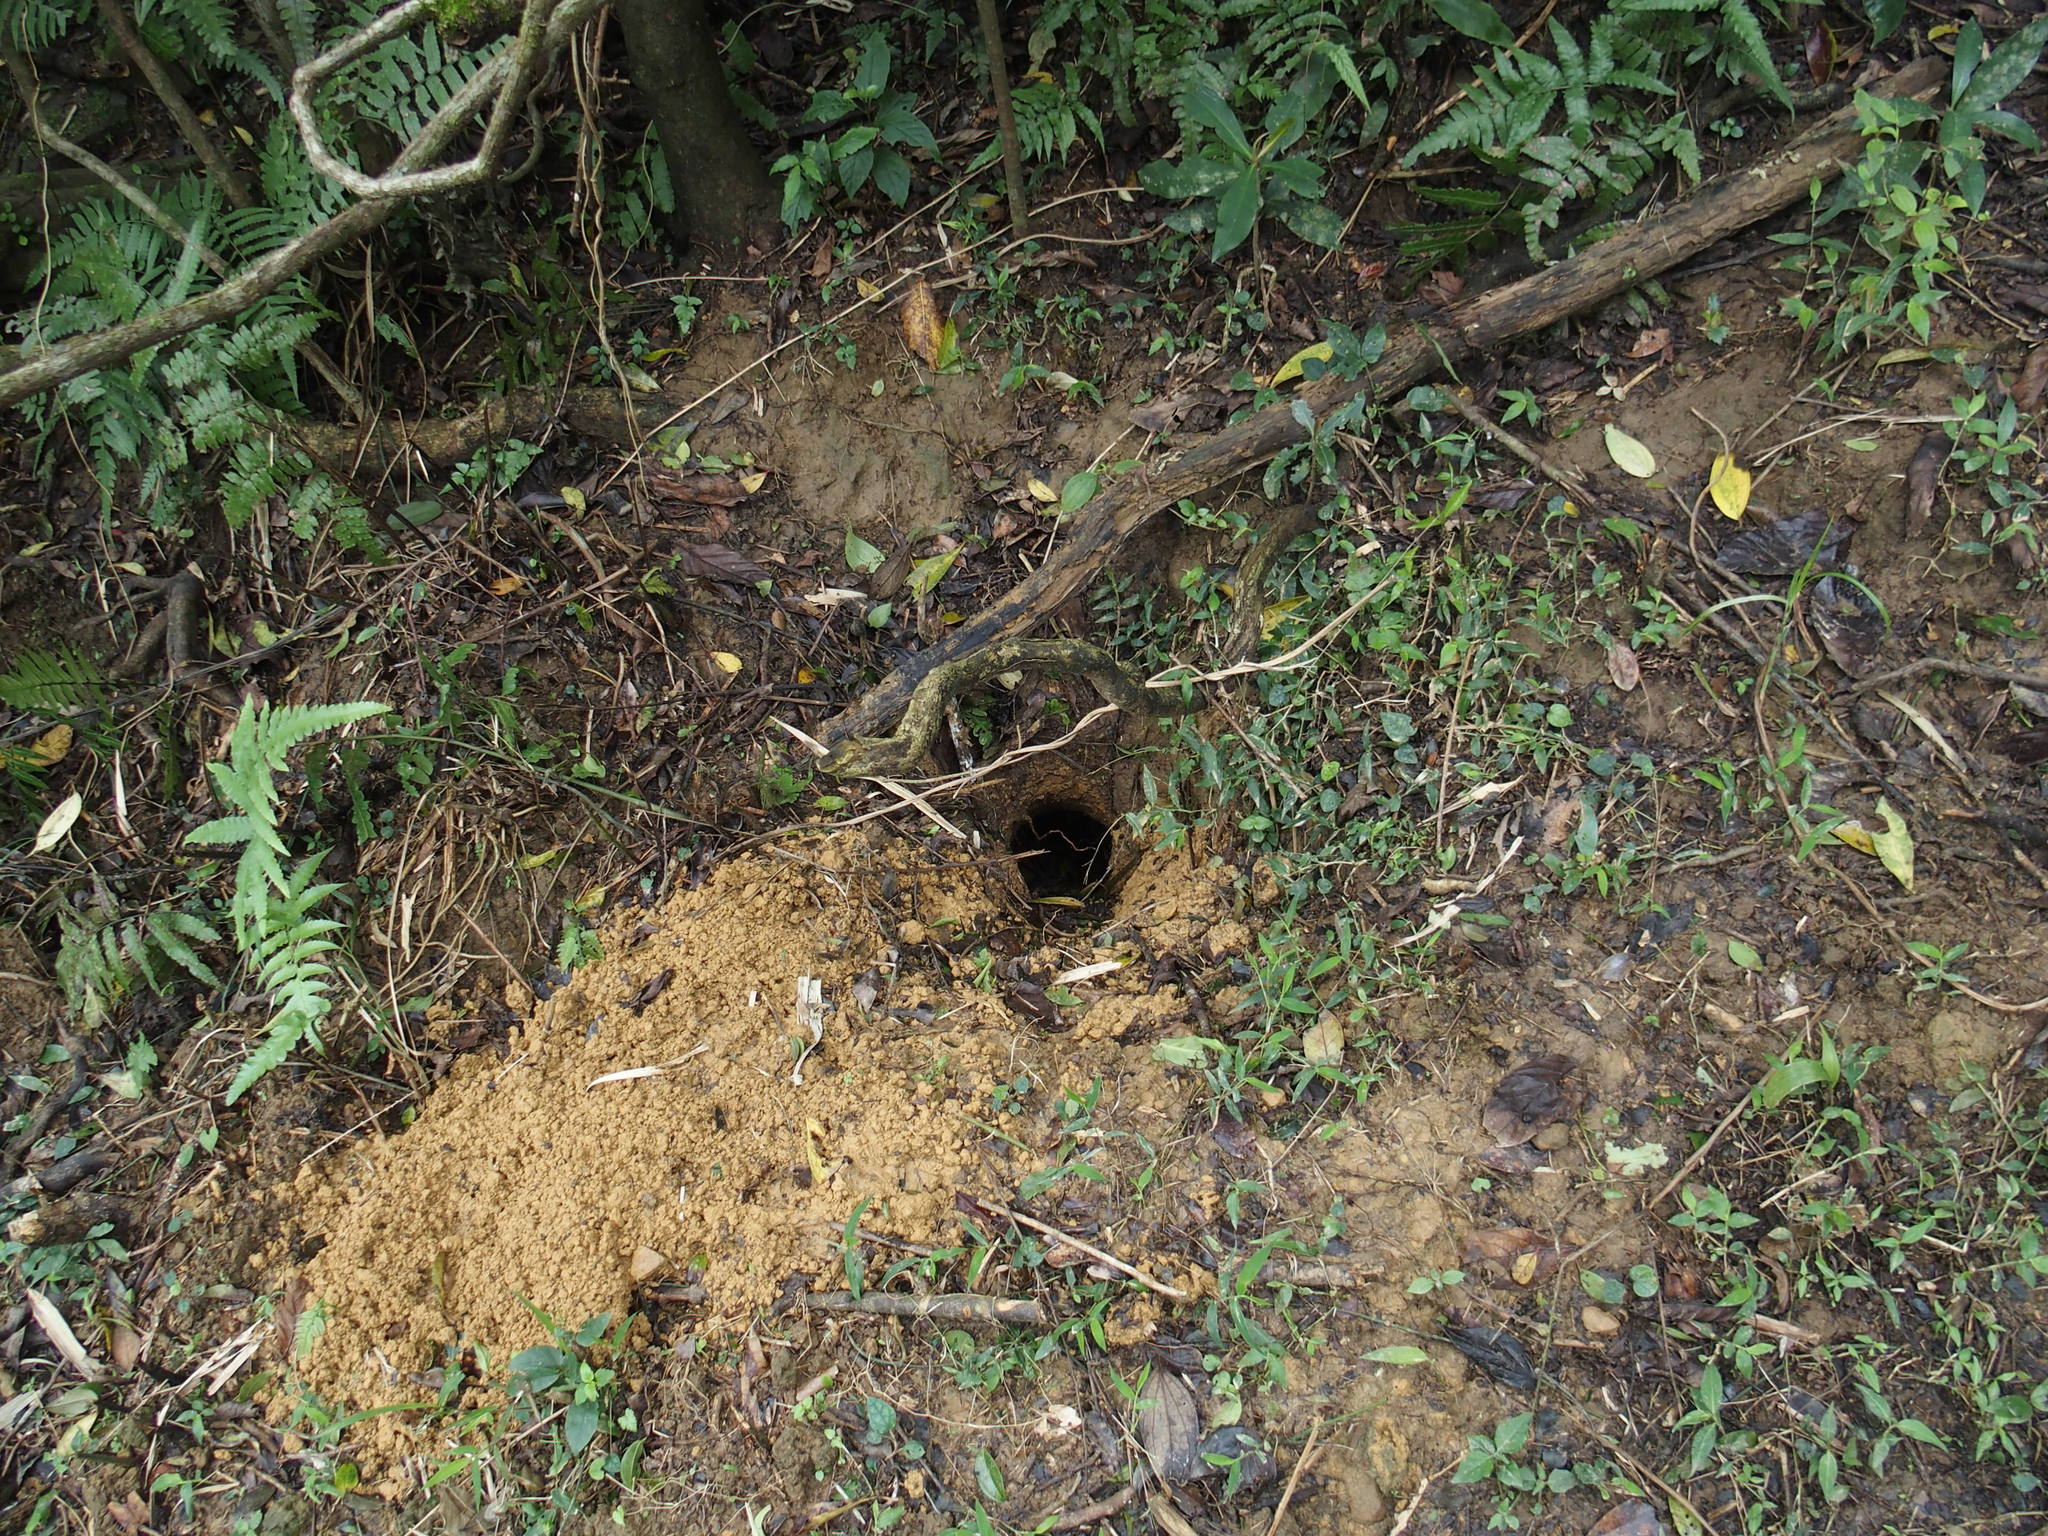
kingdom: Animalia
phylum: Chordata
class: Mammalia
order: Pholidota
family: Manidae
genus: Manis
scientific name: Manis pentadactyla
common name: Chinese pangolin
